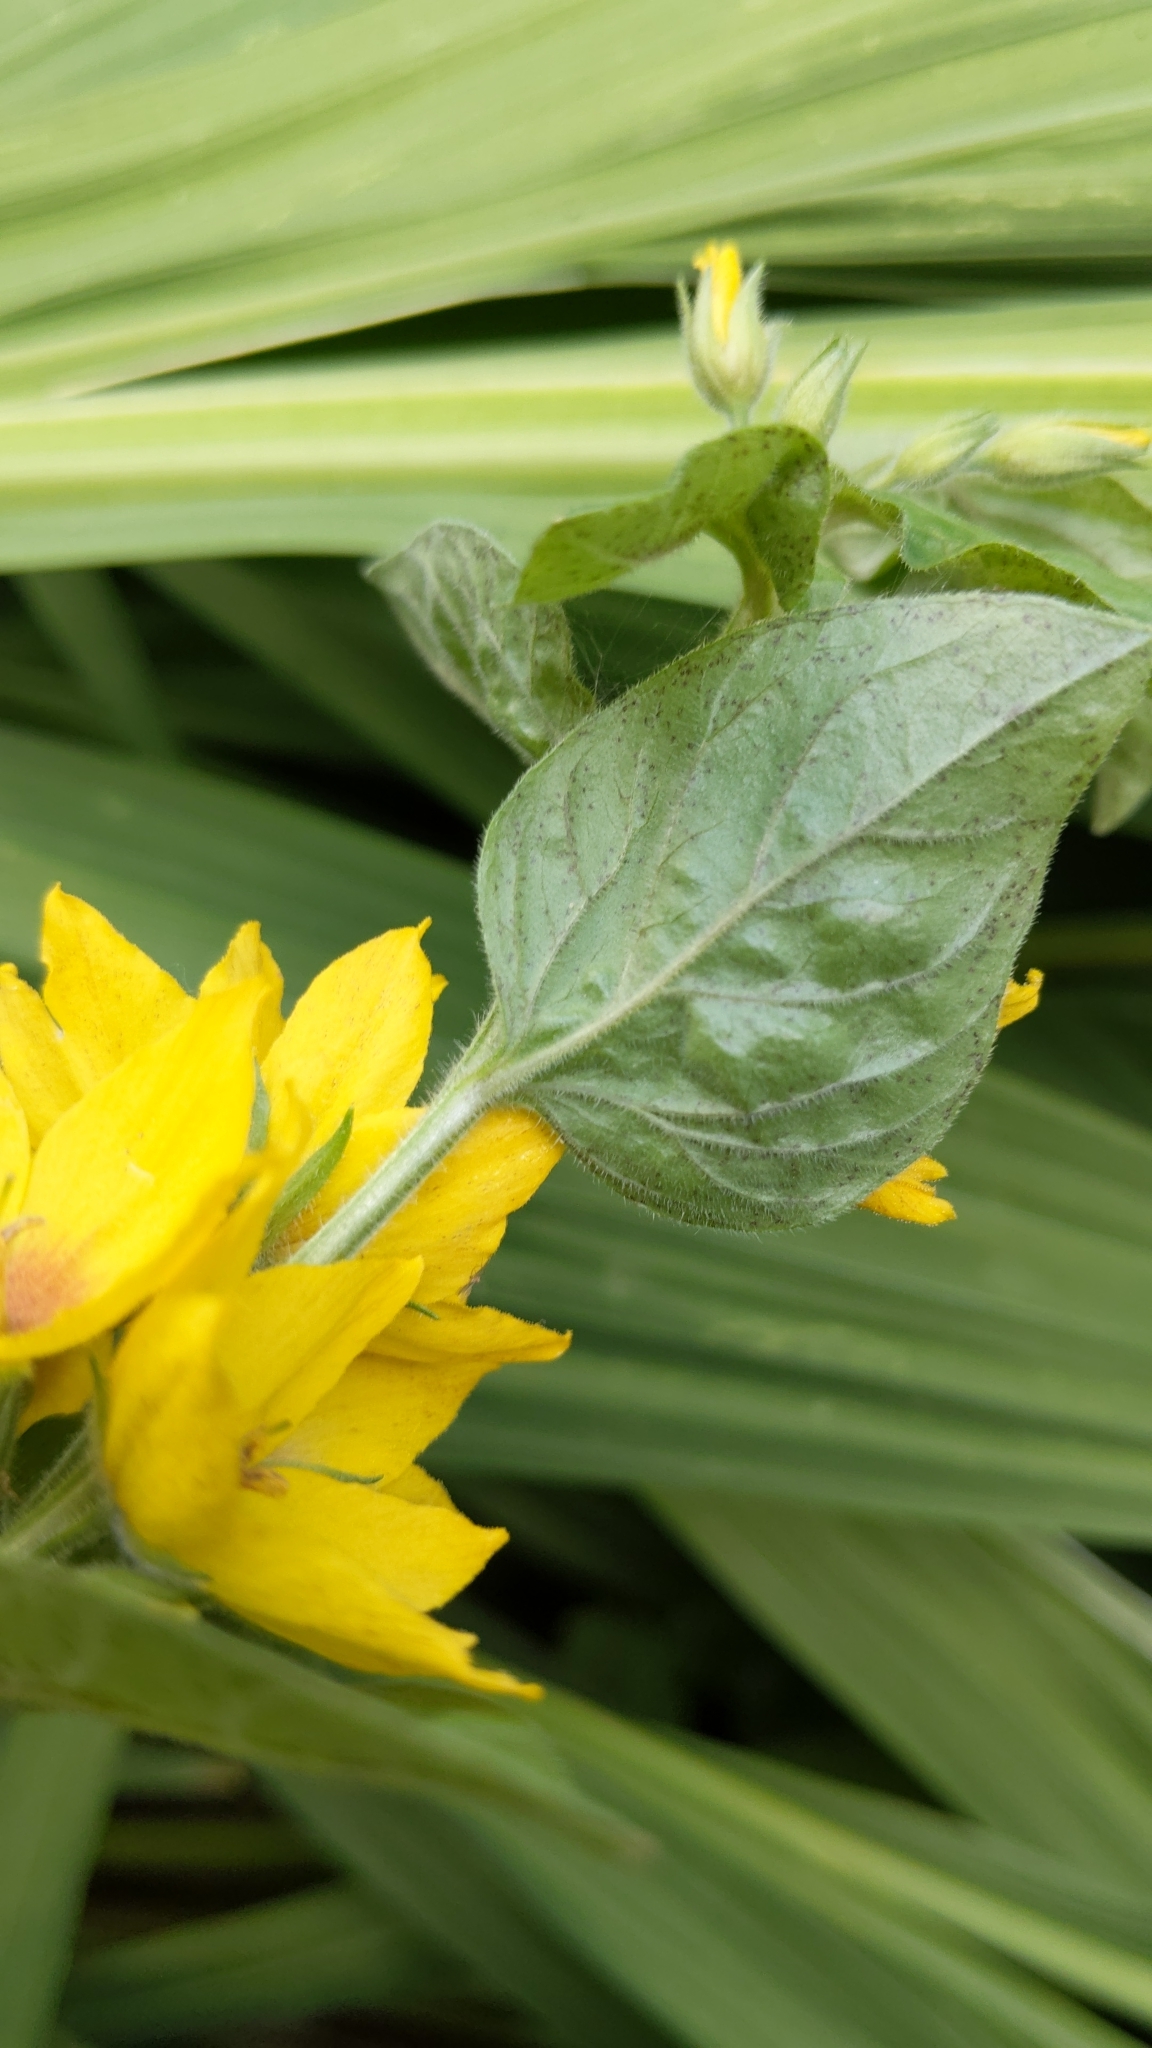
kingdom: Plantae
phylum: Tracheophyta
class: Magnoliopsida
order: Ericales
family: Primulaceae
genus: Lysimachia
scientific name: Lysimachia punctata
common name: Dotted loosestrife
